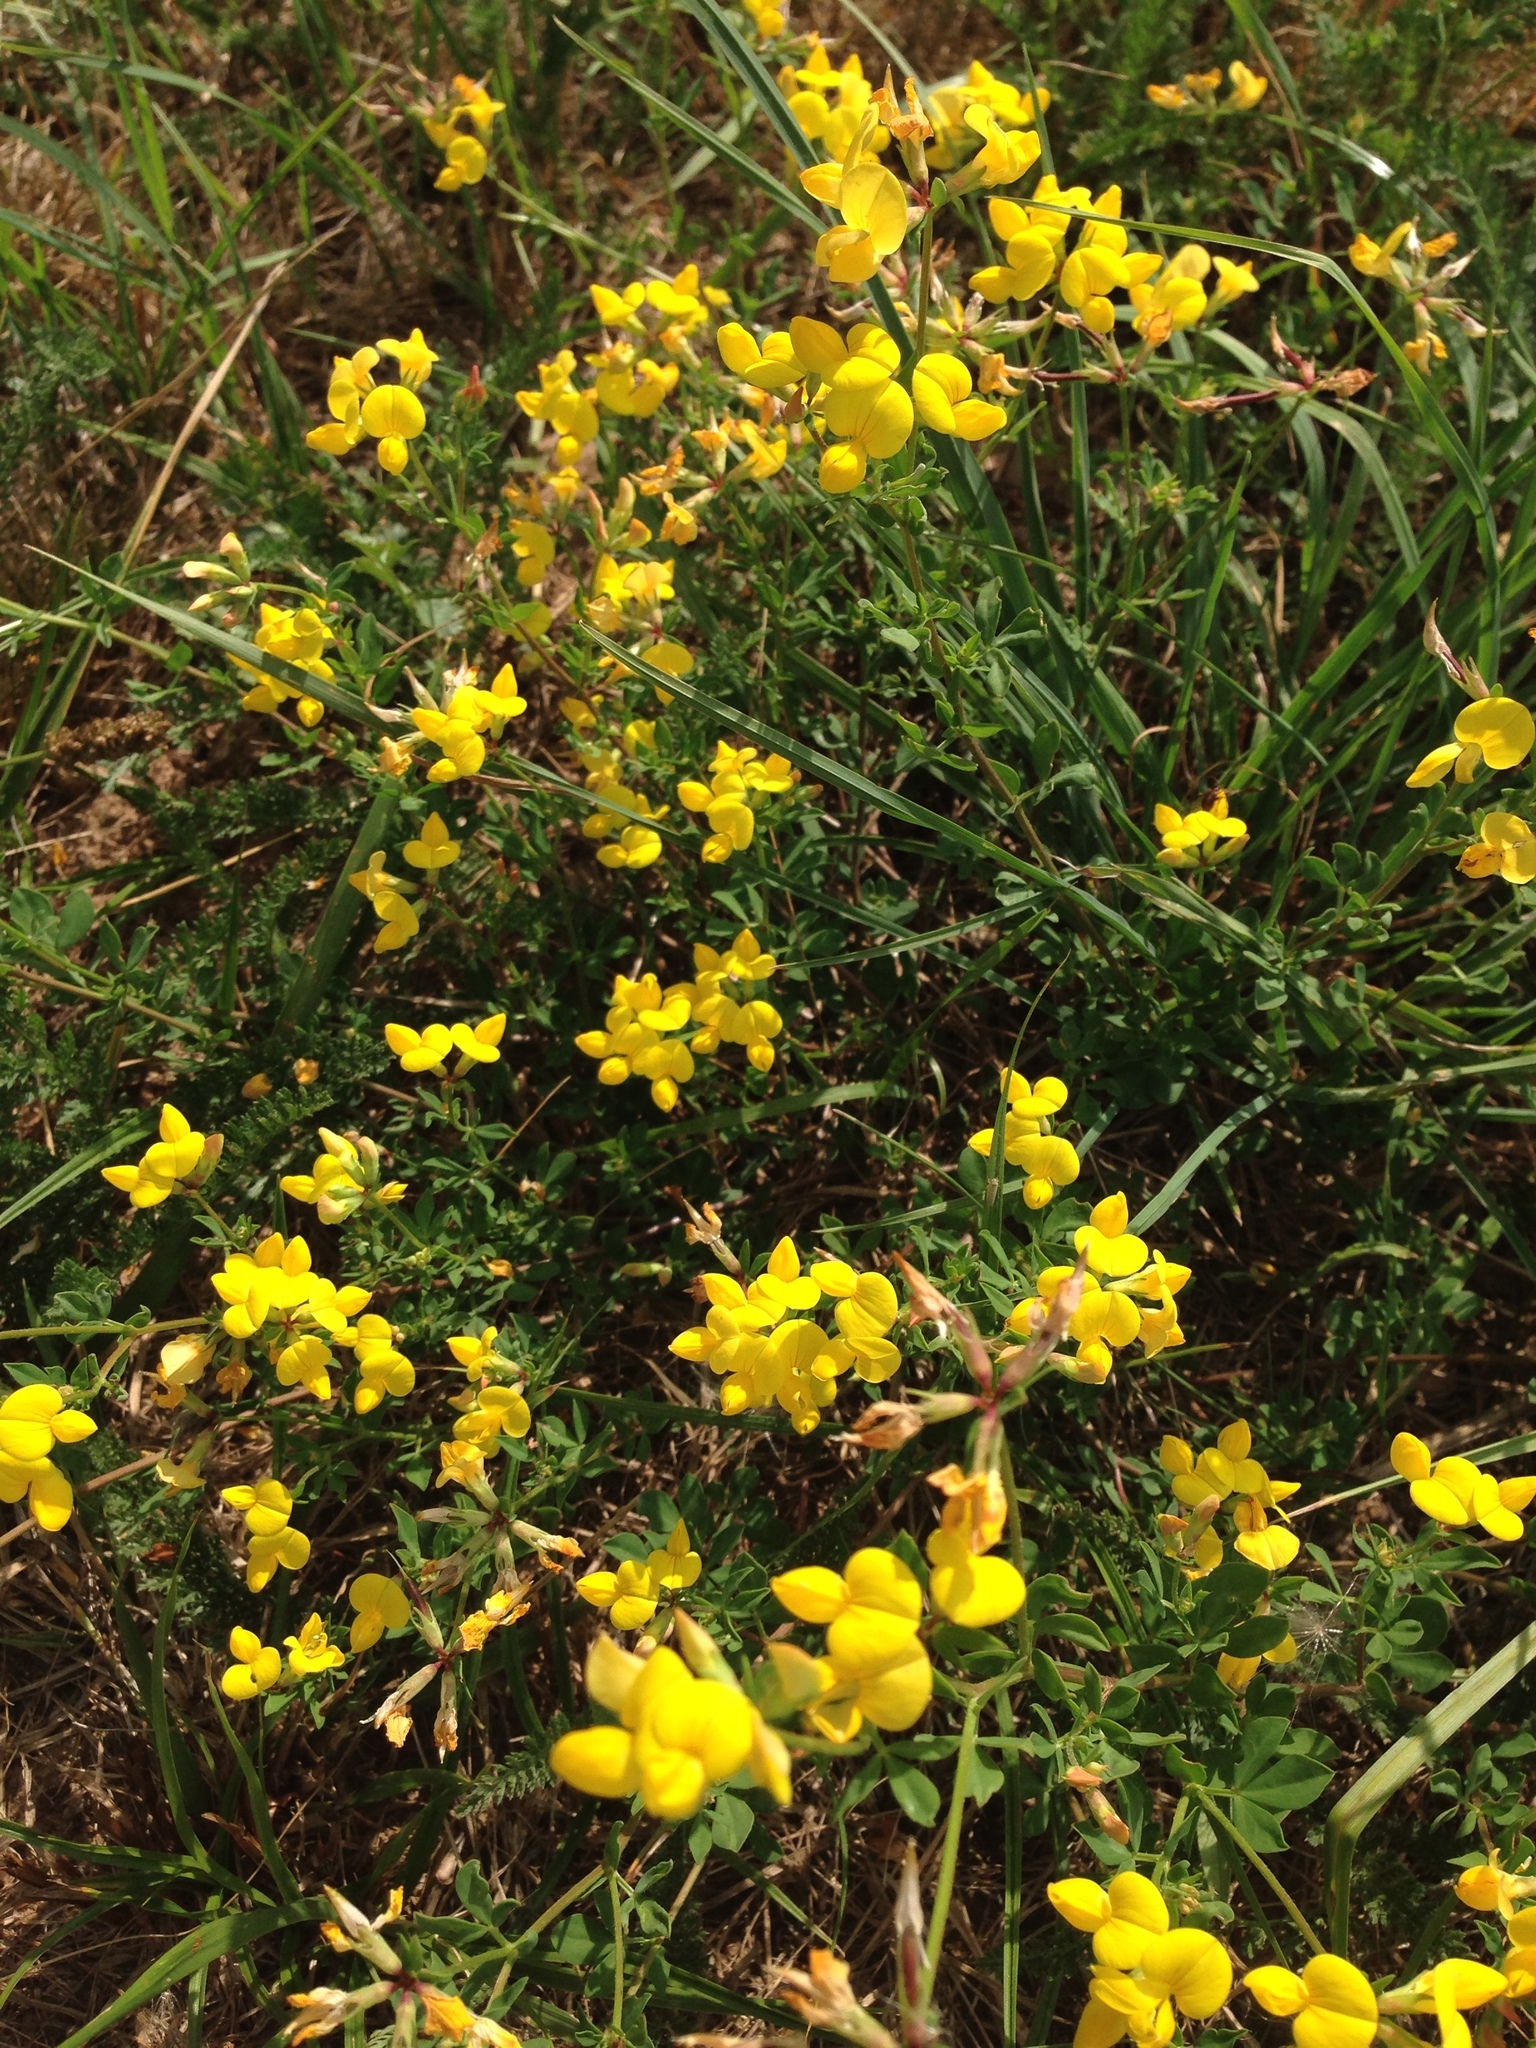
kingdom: Plantae
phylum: Tracheophyta
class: Magnoliopsida
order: Fabales
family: Fabaceae
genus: Lotus
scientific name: Lotus corniculatus
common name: Common bird's-foot-trefoil
